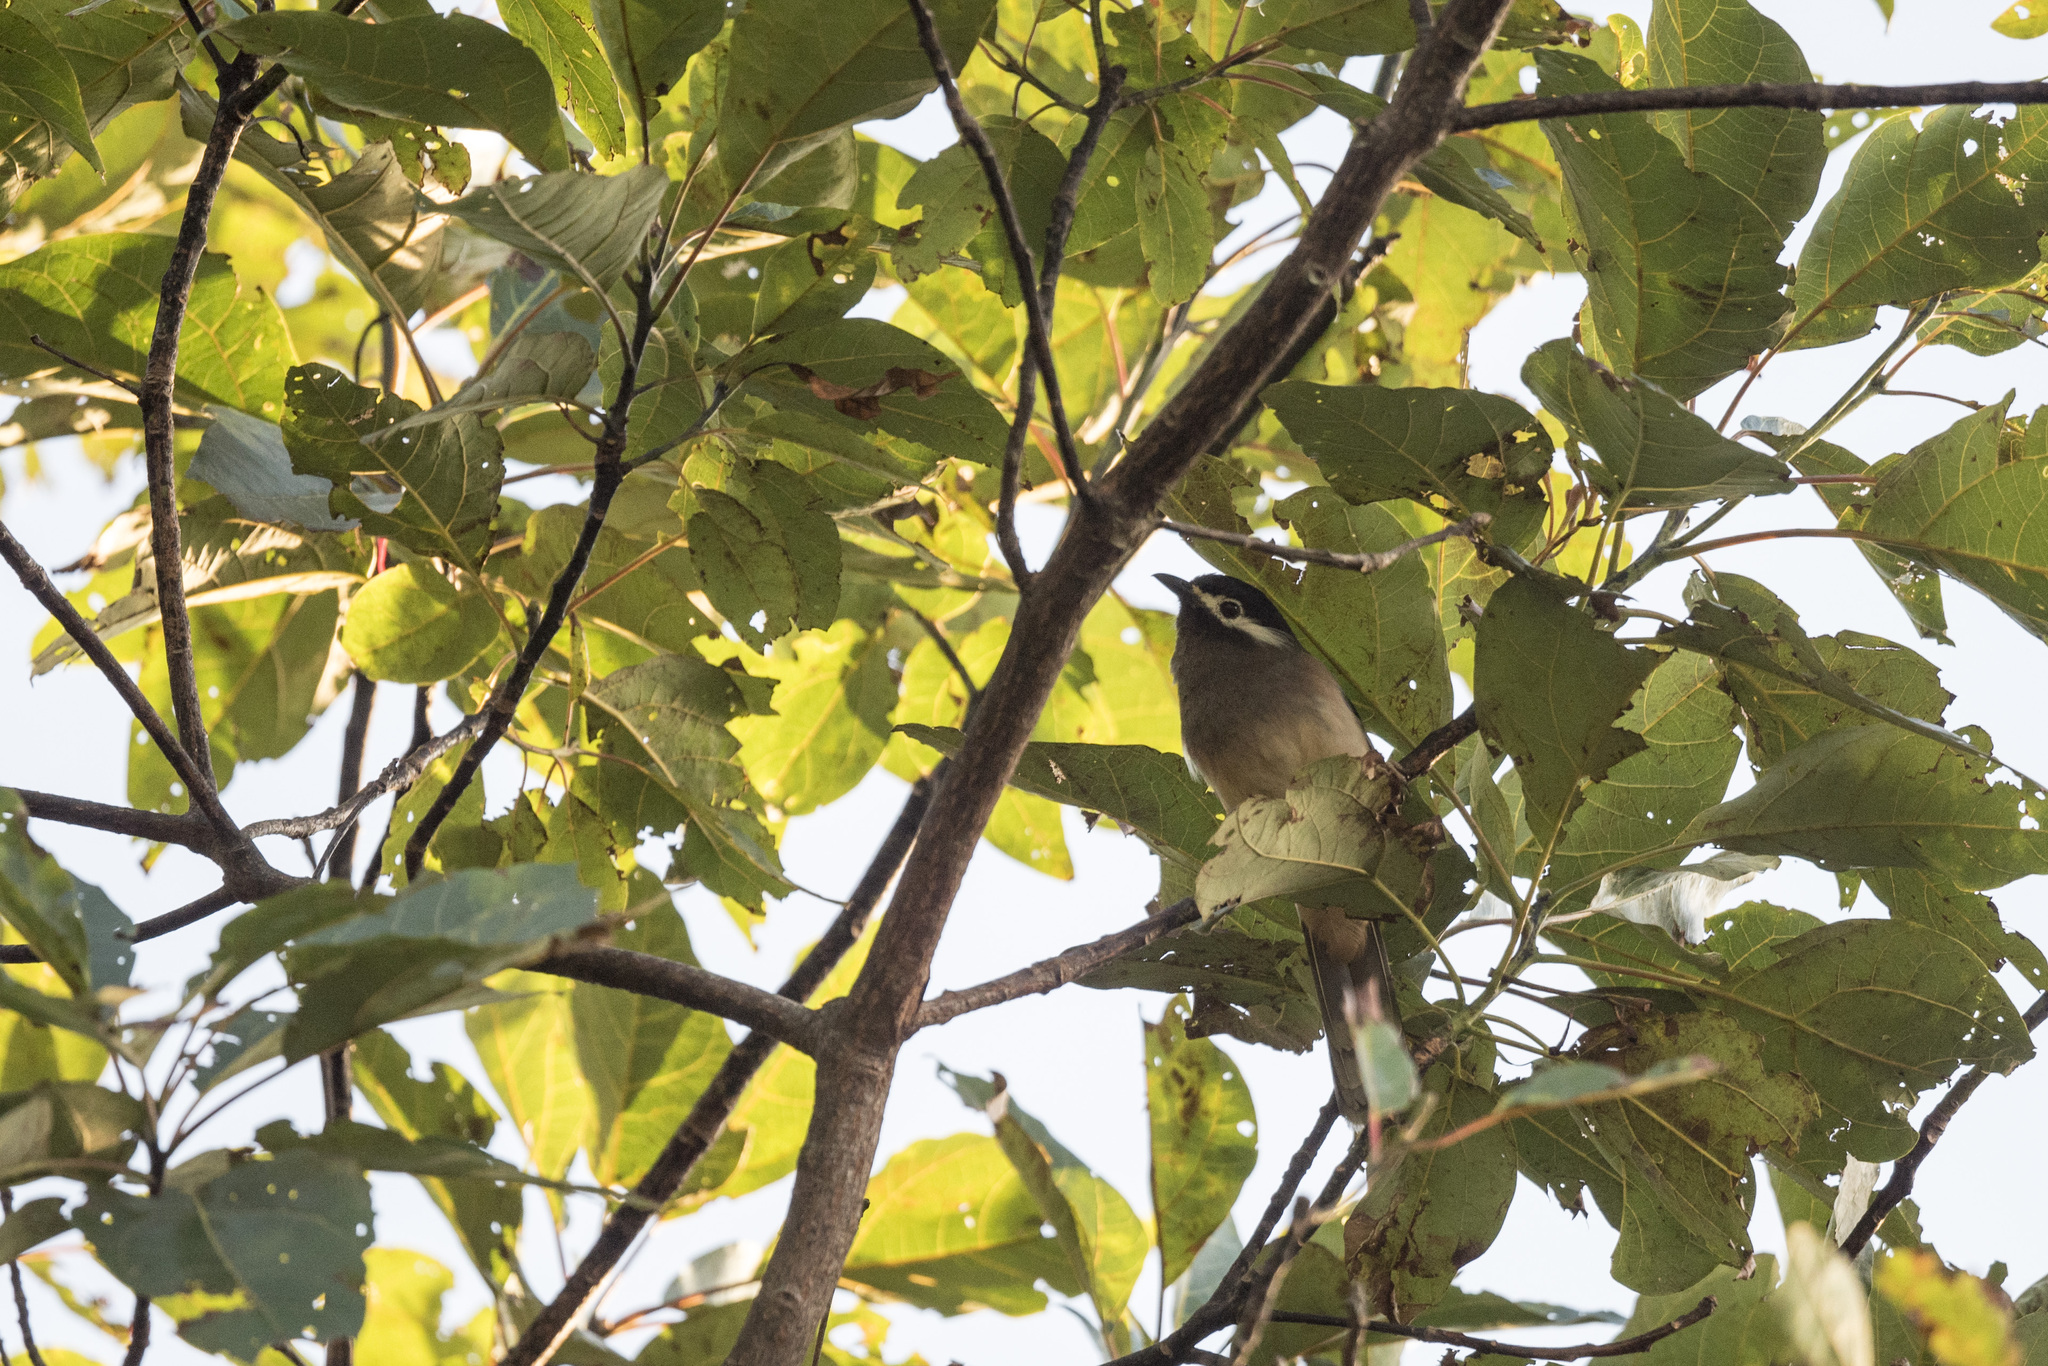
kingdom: Animalia
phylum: Chordata
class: Aves
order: Passeriformes
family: Leiothrichidae
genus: Heterophasia
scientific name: Heterophasia auricularis
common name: White-eared sibia
